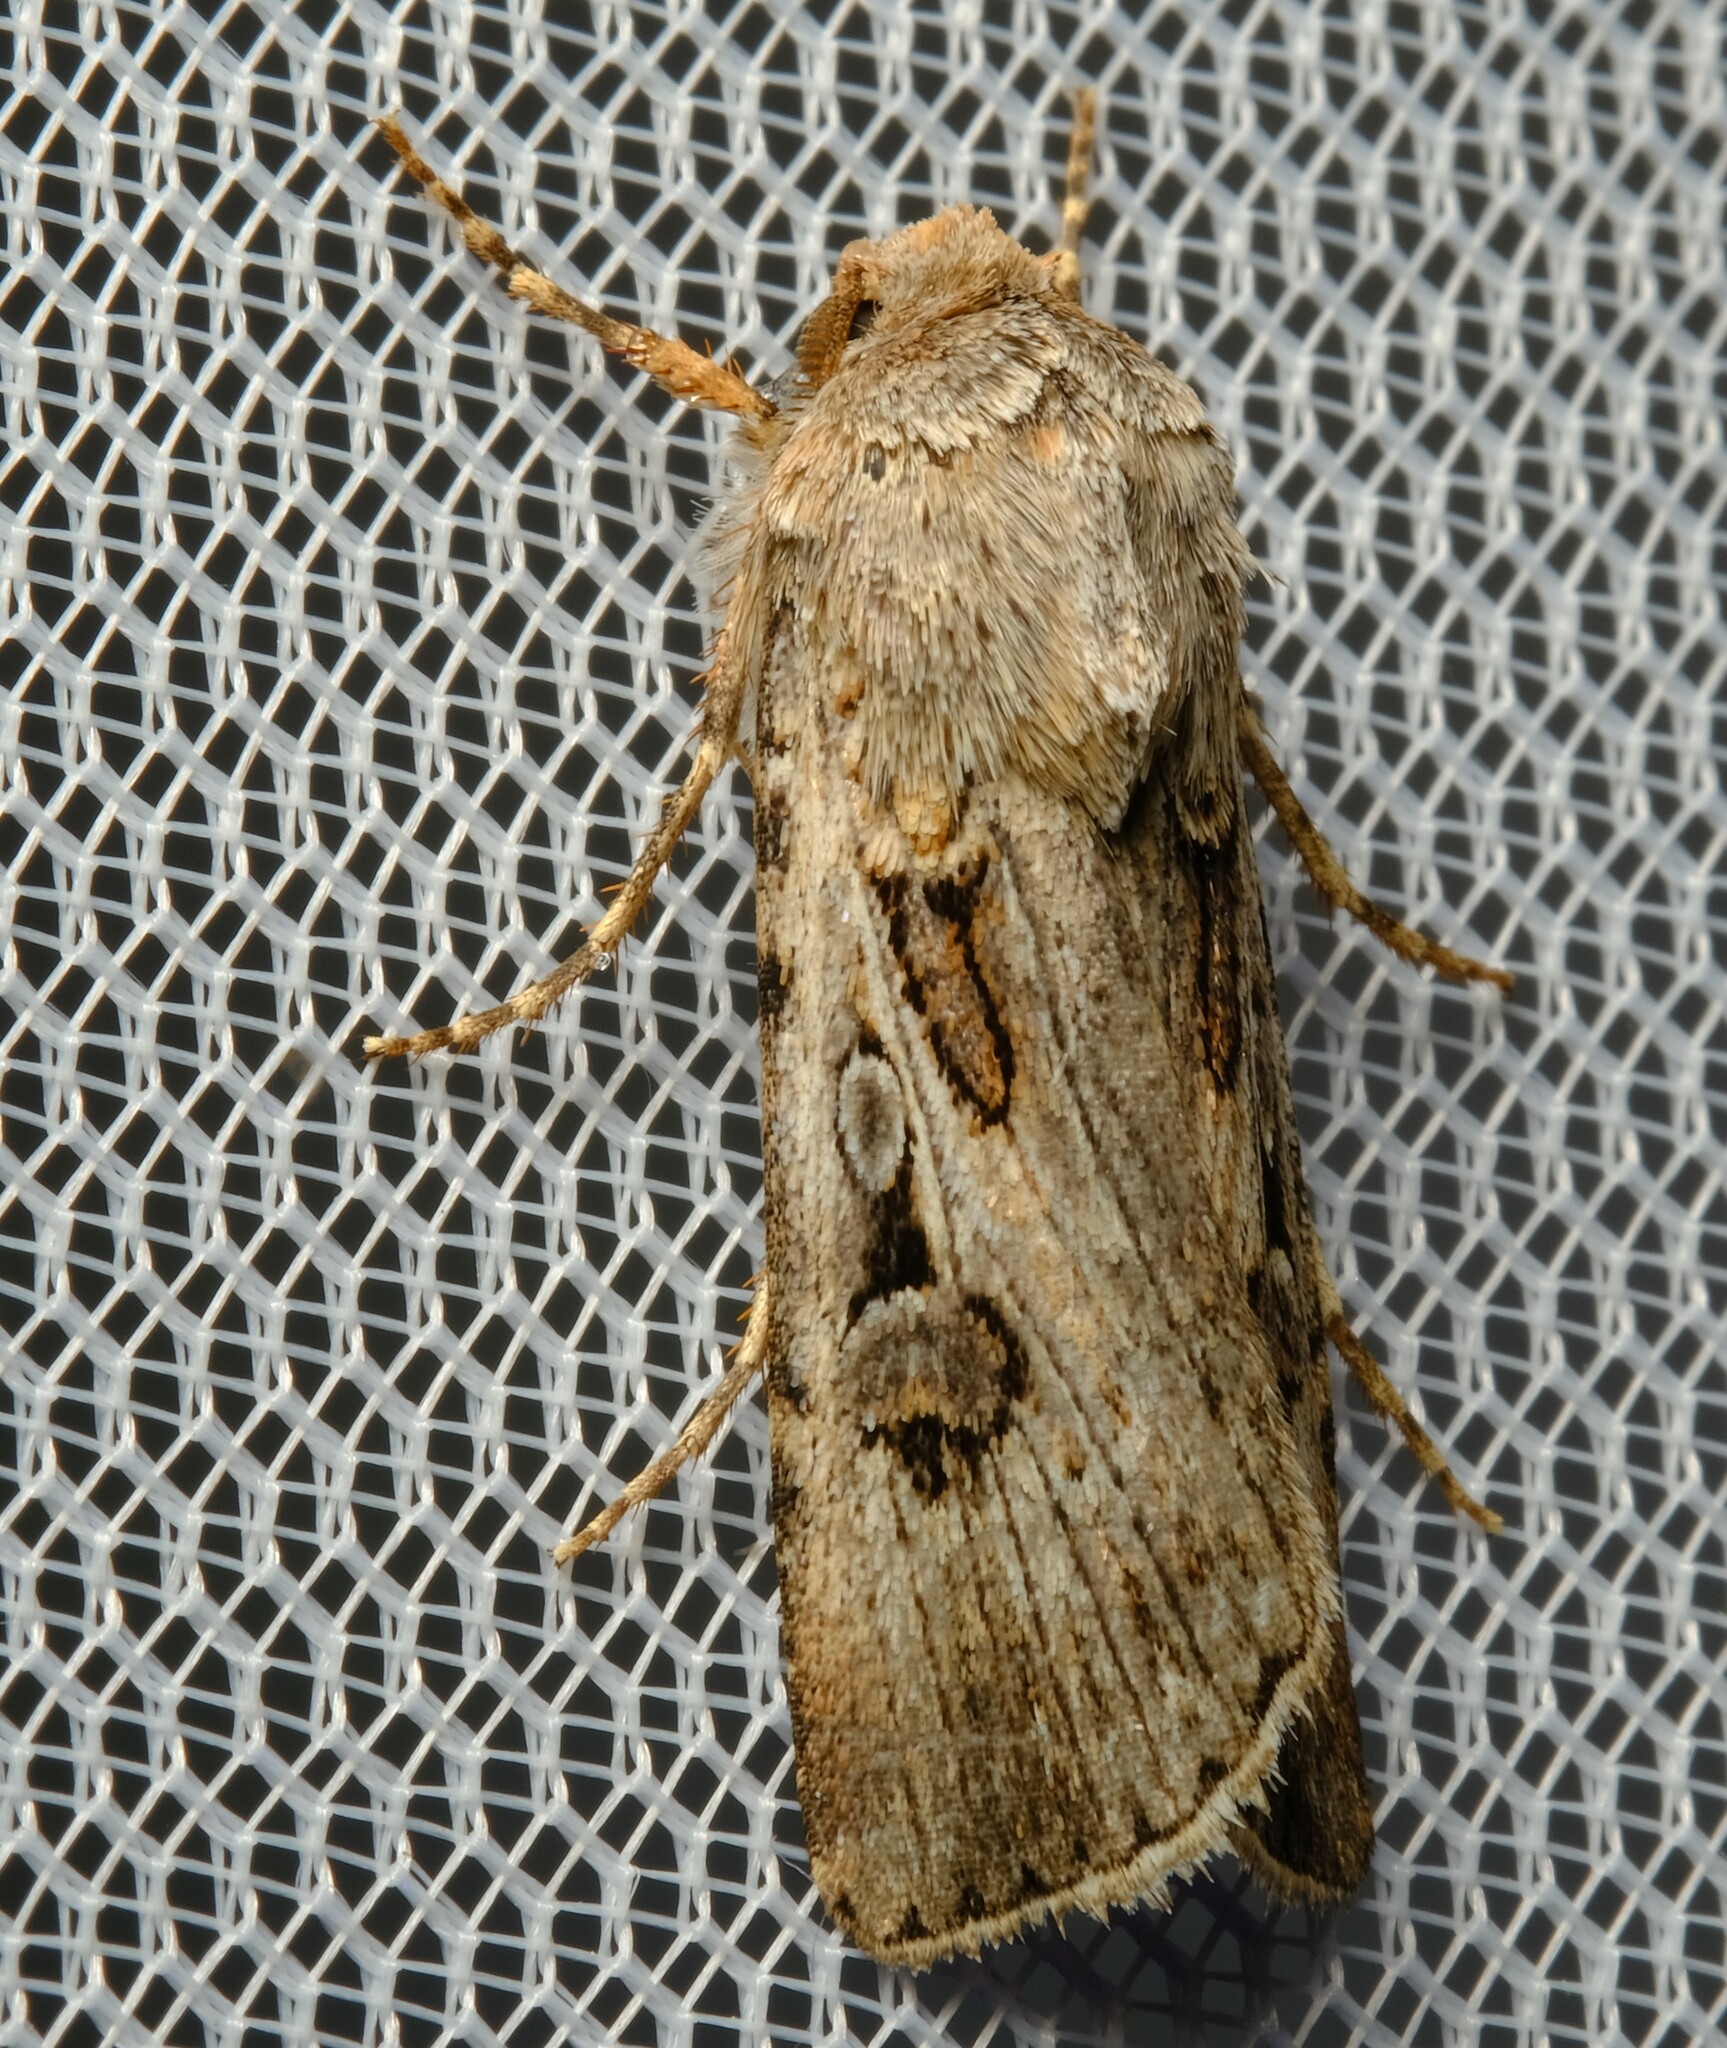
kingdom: Animalia
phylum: Arthropoda
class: Insecta
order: Lepidoptera
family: Noctuidae
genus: Agrotis
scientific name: Agrotis munda
